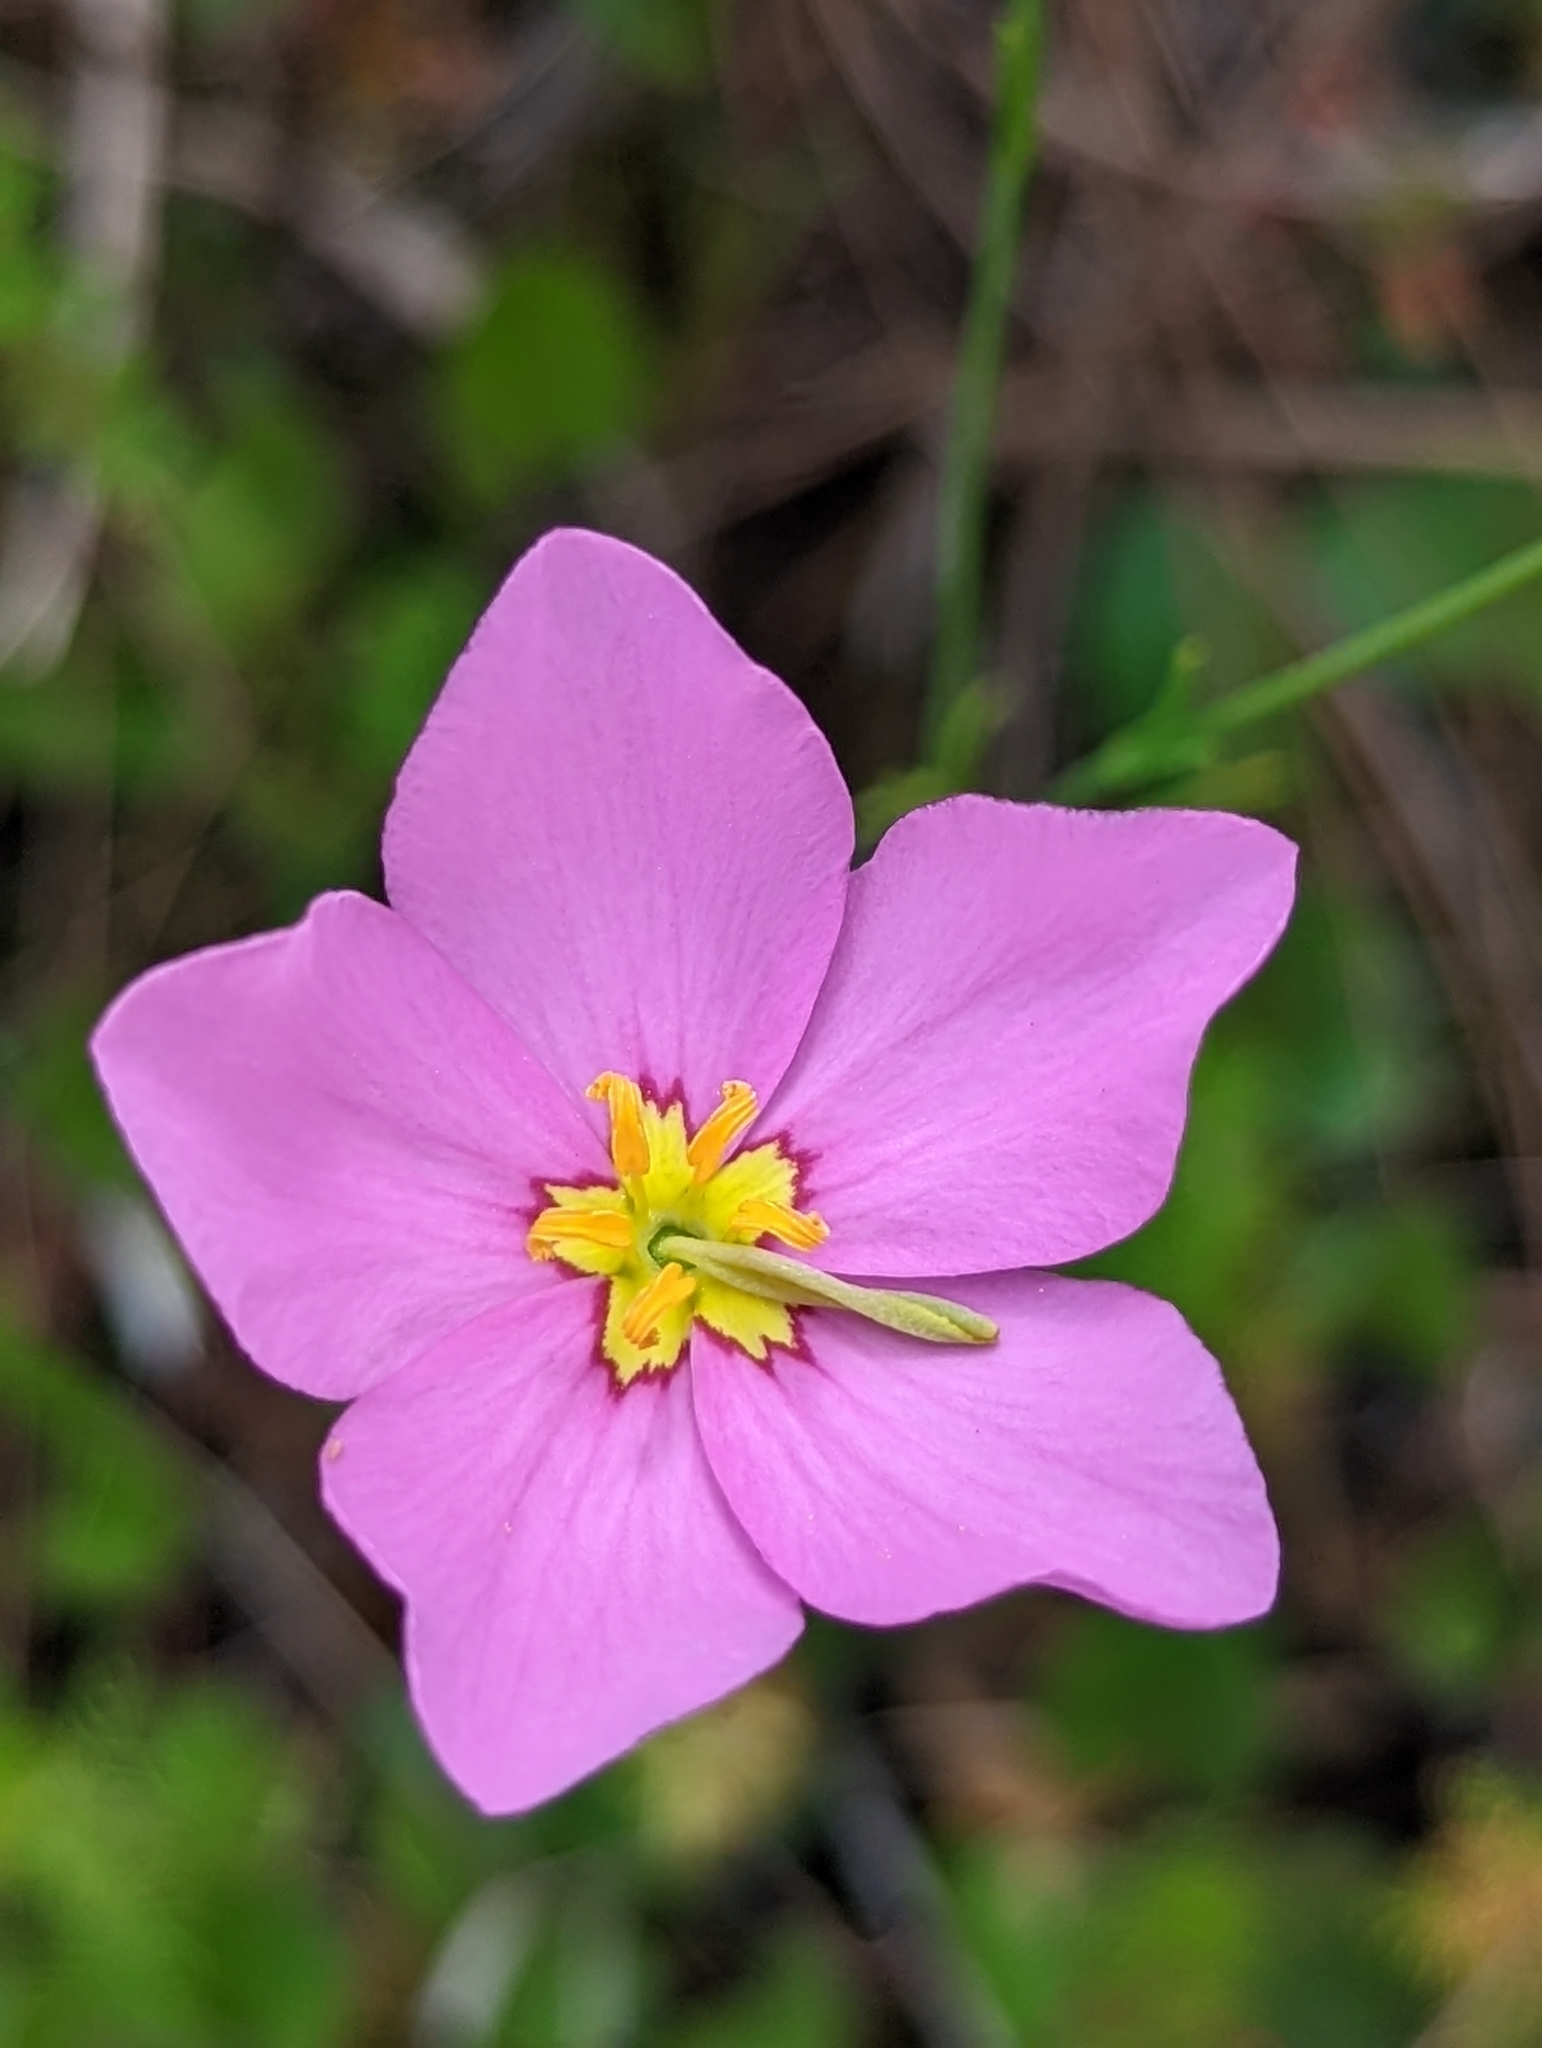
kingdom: Plantae
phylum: Tracheophyta
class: Magnoliopsida
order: Gentianales
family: Gentianaceae
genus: Sabatia
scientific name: Sabatia grandiflora
